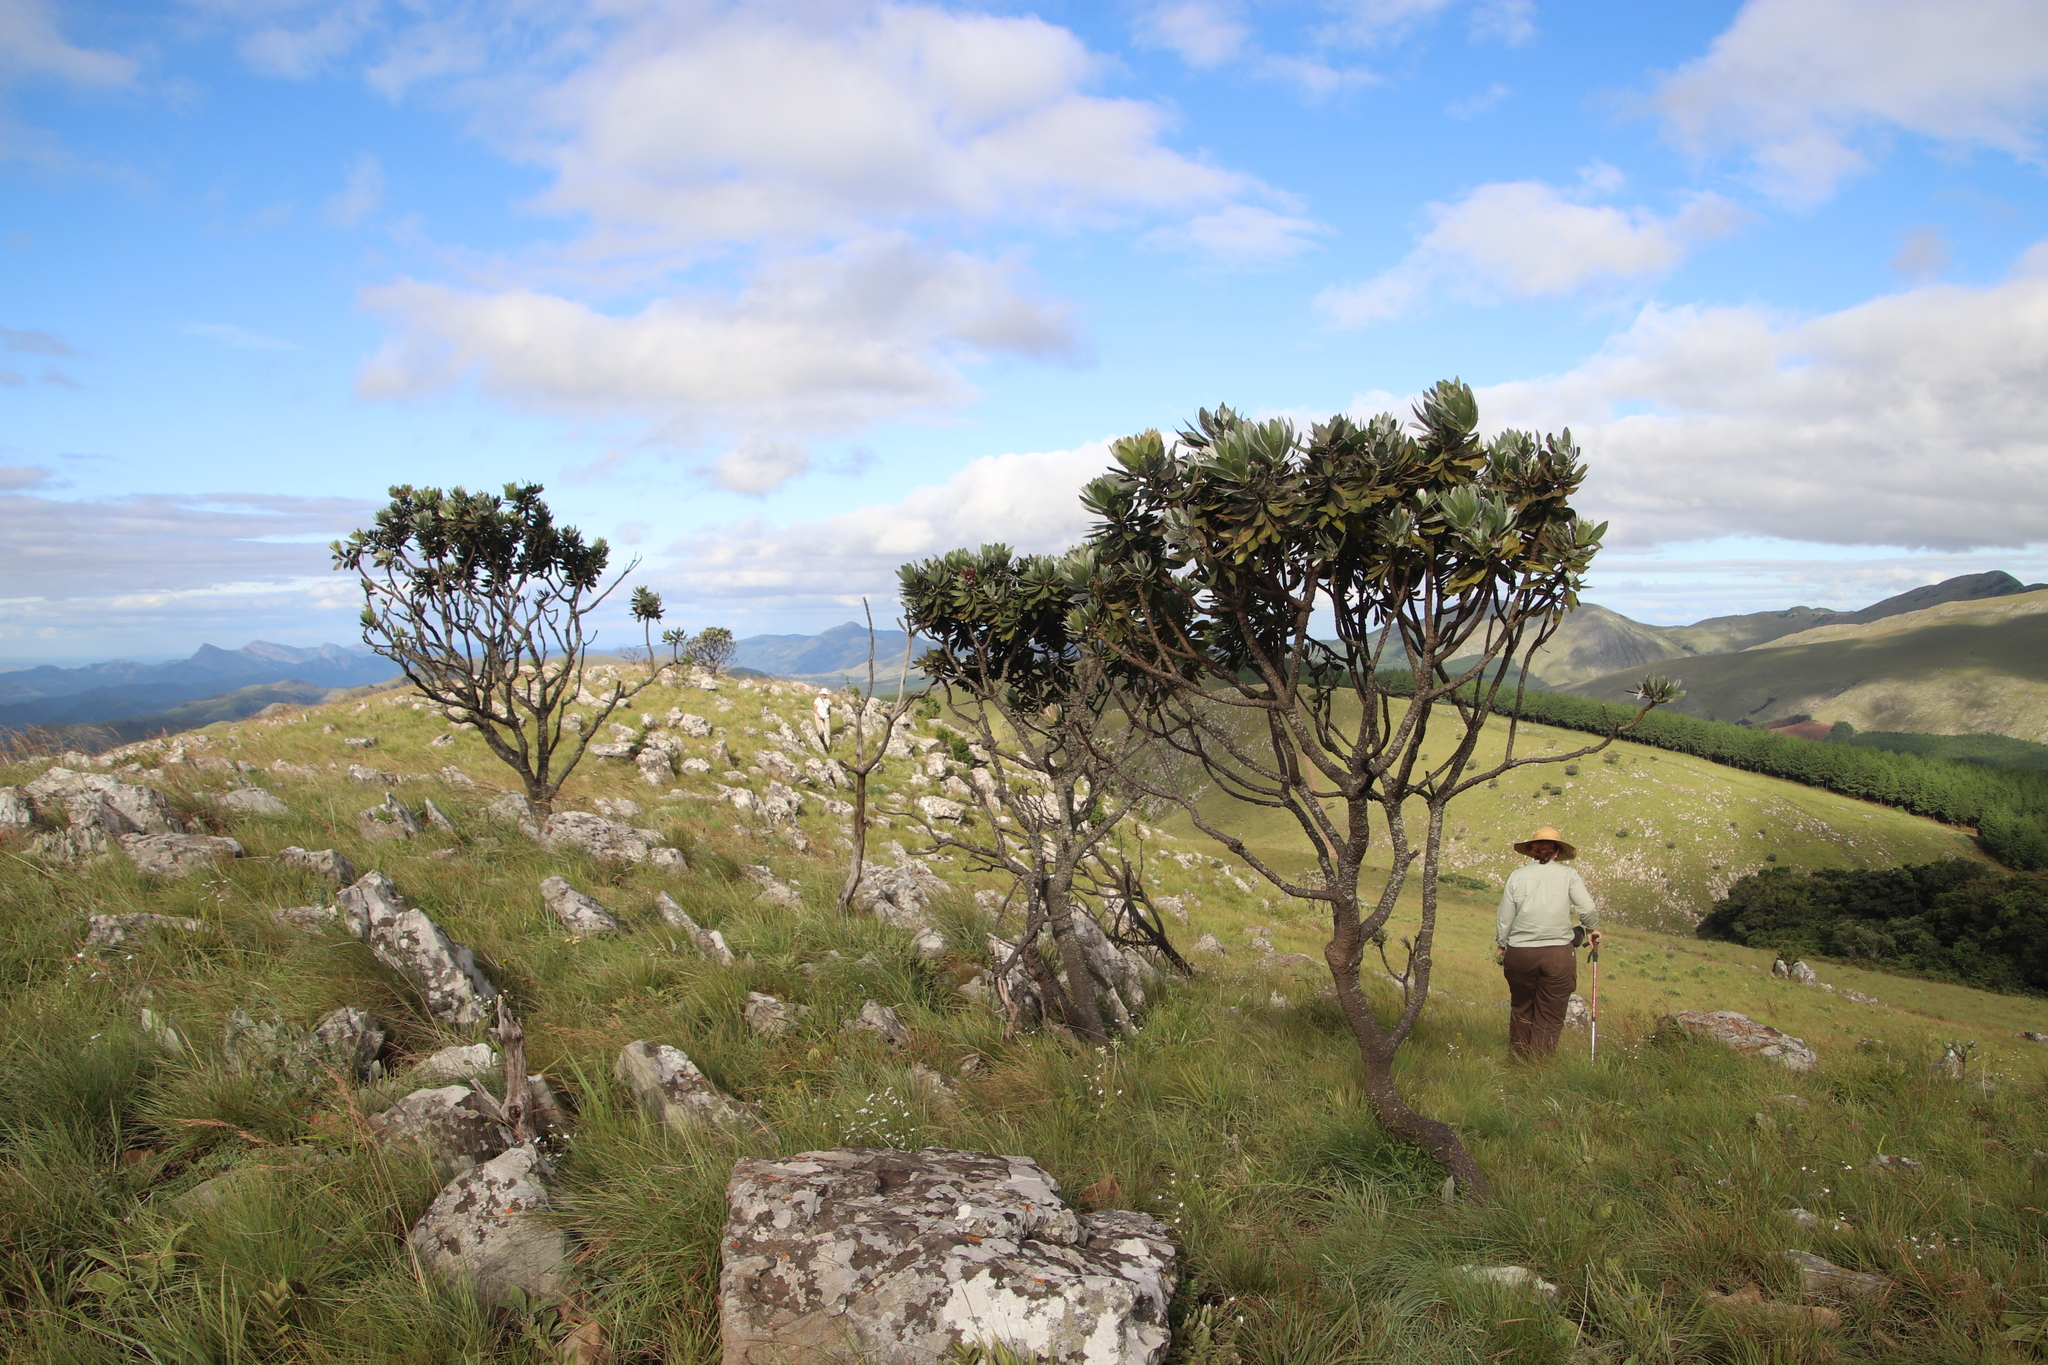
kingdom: Plantae
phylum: Tracheophyta
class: Magnoliopsida
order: Proteales
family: Proteaceae
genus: Protea
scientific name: Protea roupelliae
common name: Silver sugarbush
